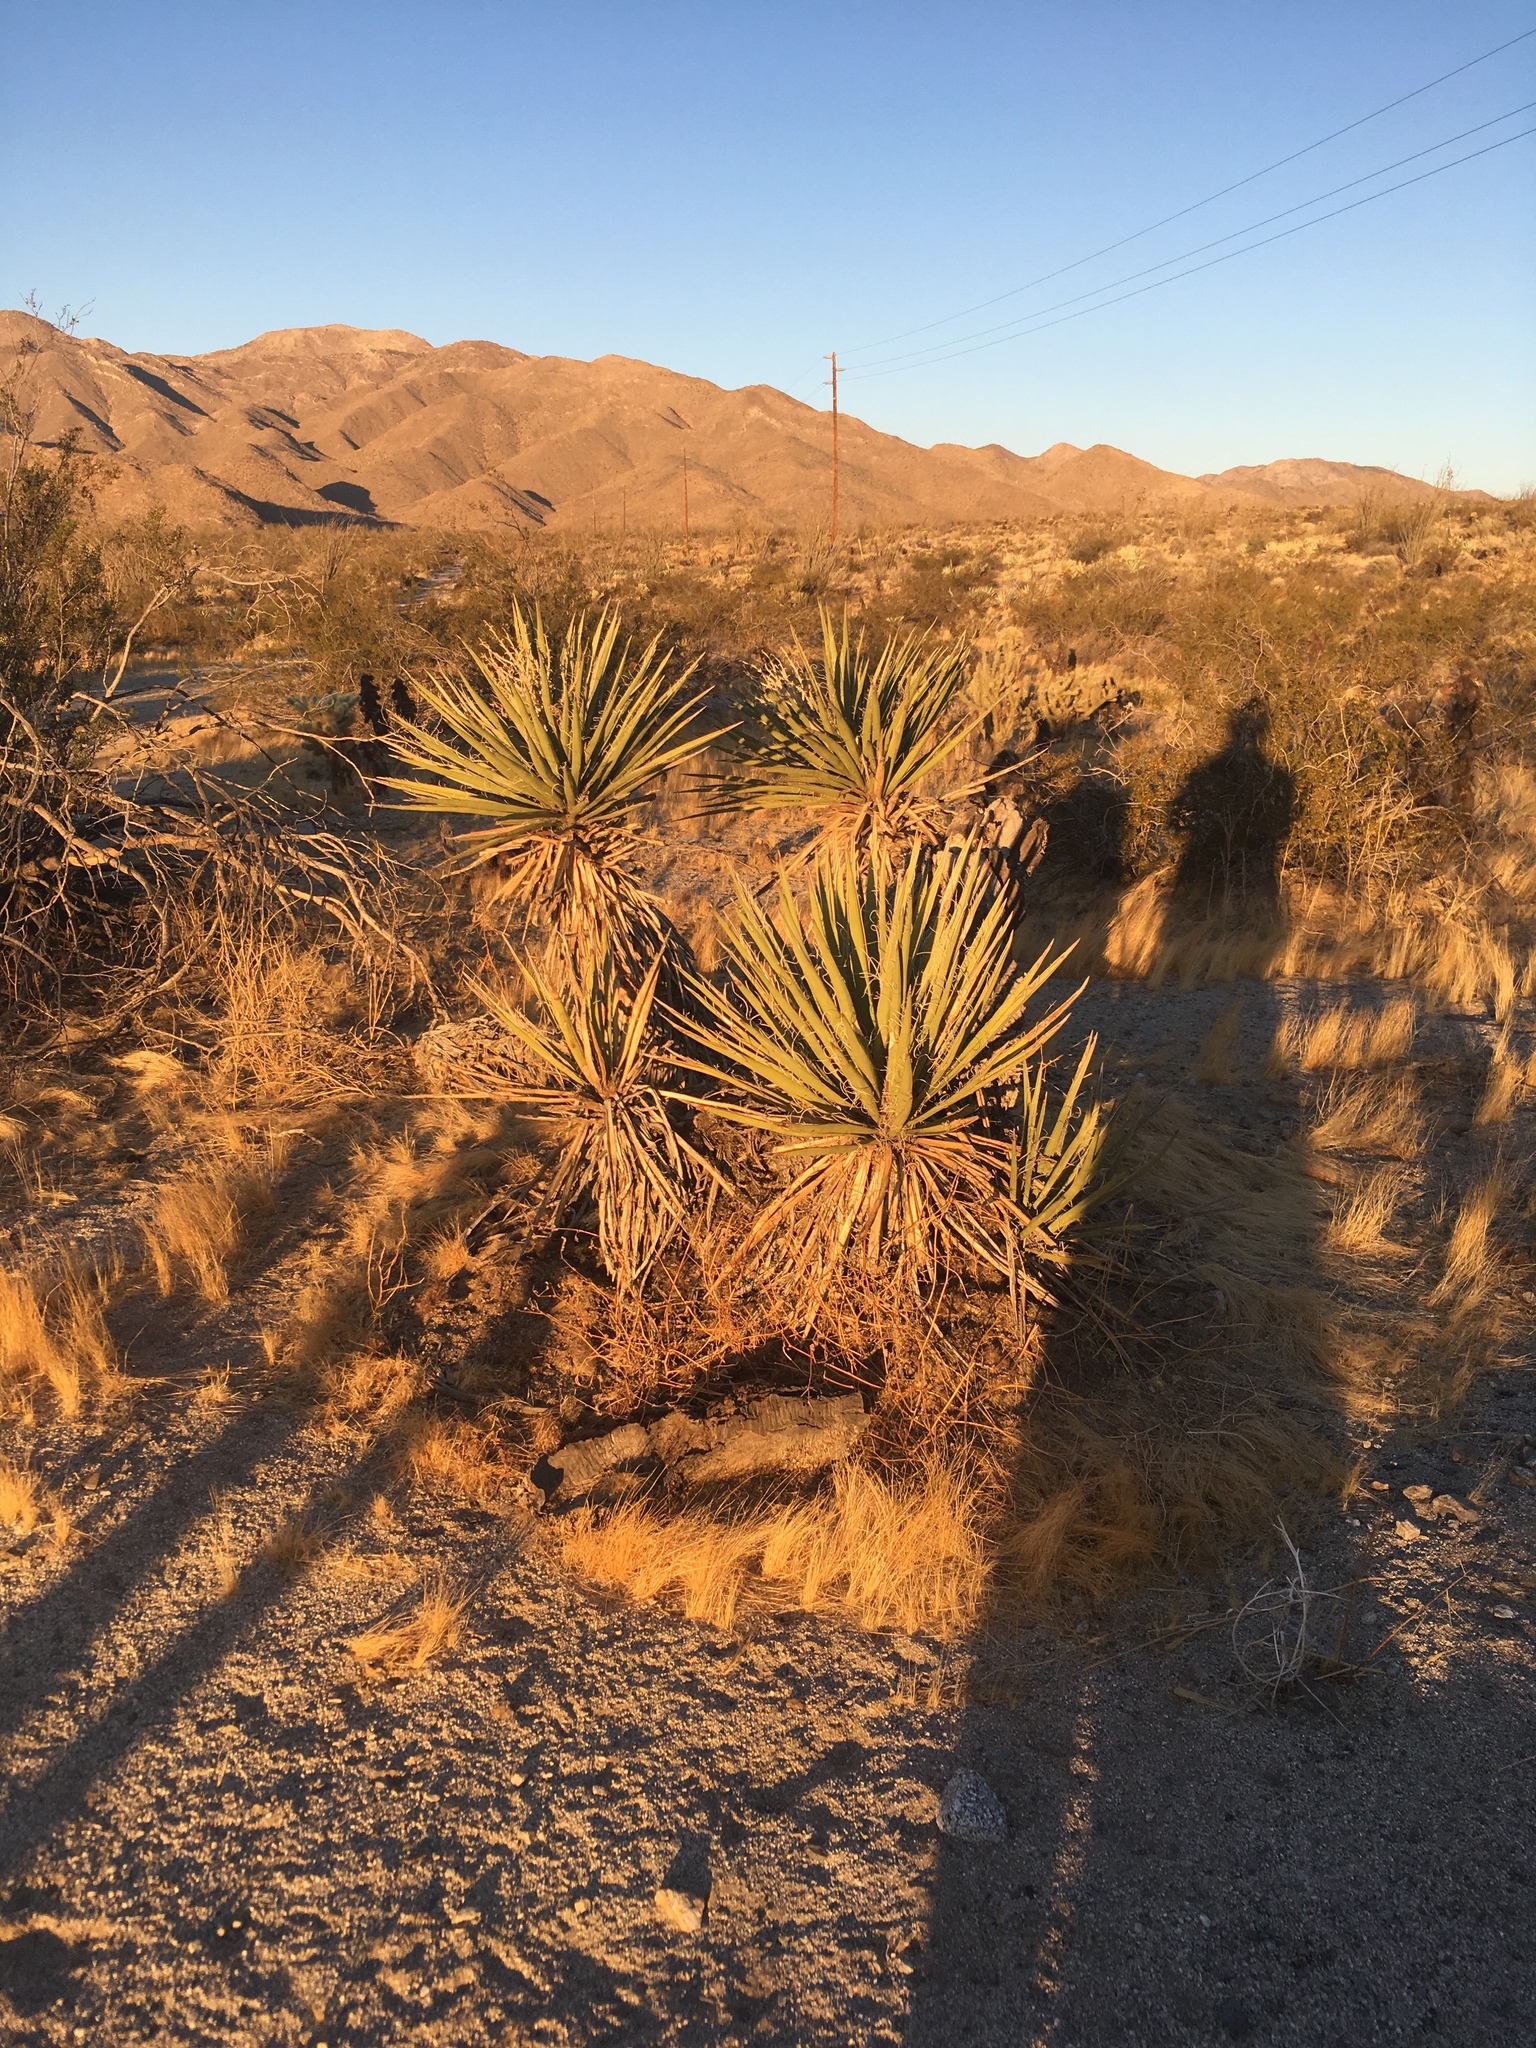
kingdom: Plantae
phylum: Tracheophyta
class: Liliopsida
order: Asparagales
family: Asparagaceae
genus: Yucca
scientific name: Yucca schidigera
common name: Mojave yucca
